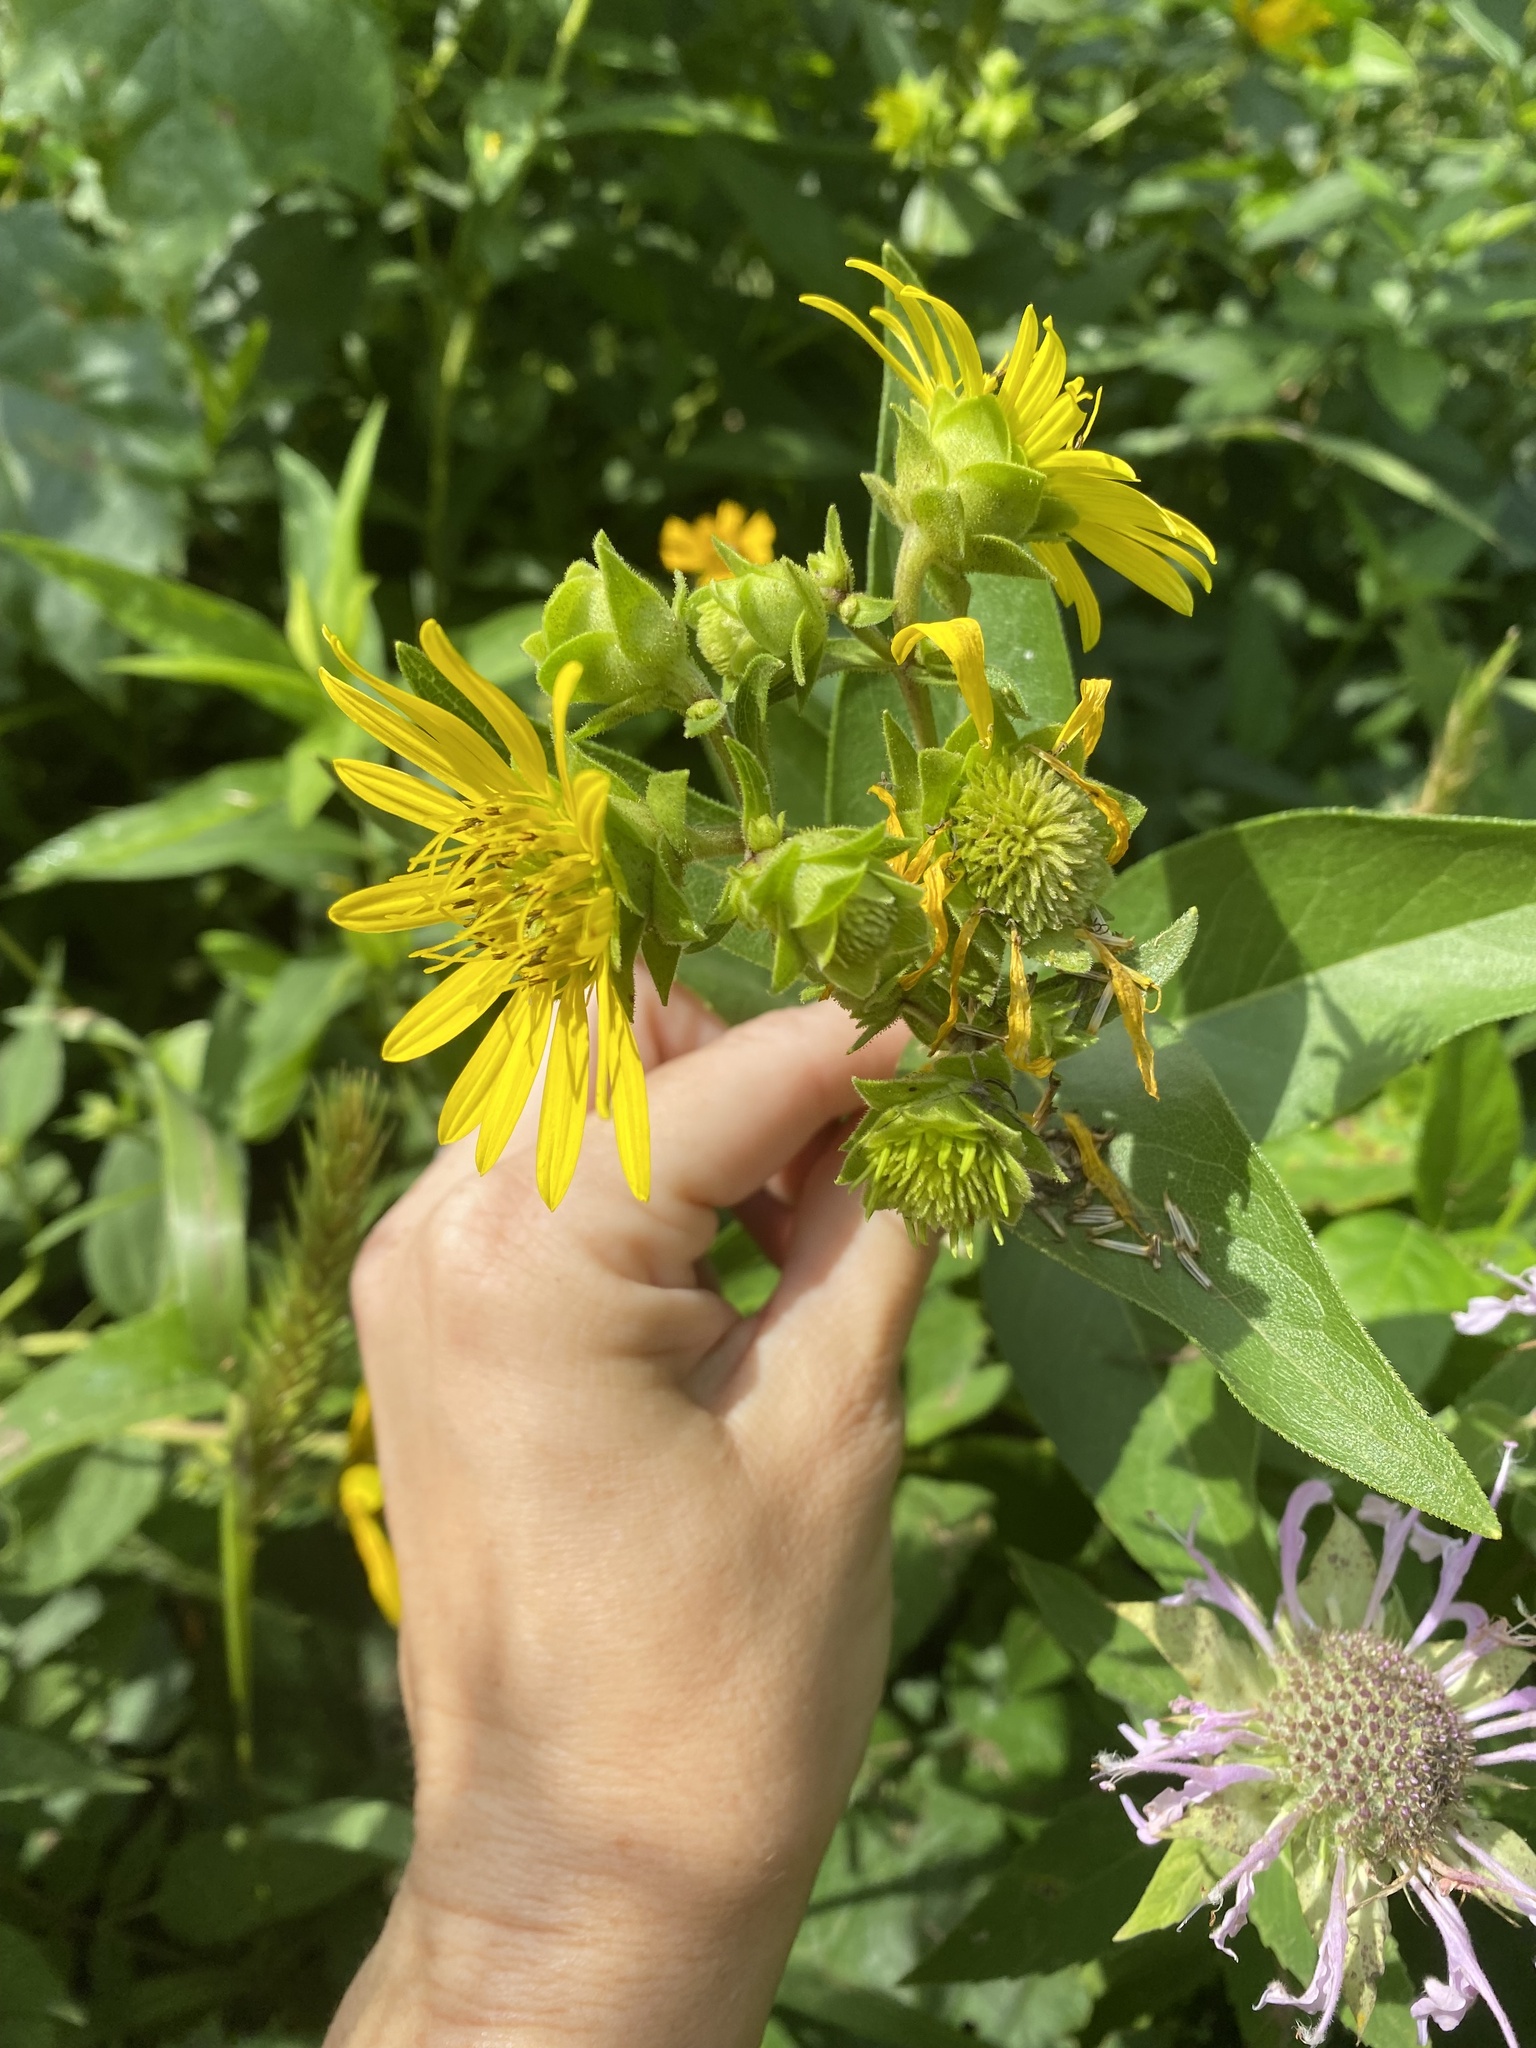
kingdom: Plantae
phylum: Tracheophyta
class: Magnoliopsida
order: Asterales
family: Asteraceae
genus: Silphium
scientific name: Silphium integrifolium
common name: Whole-leaf rosinweed
